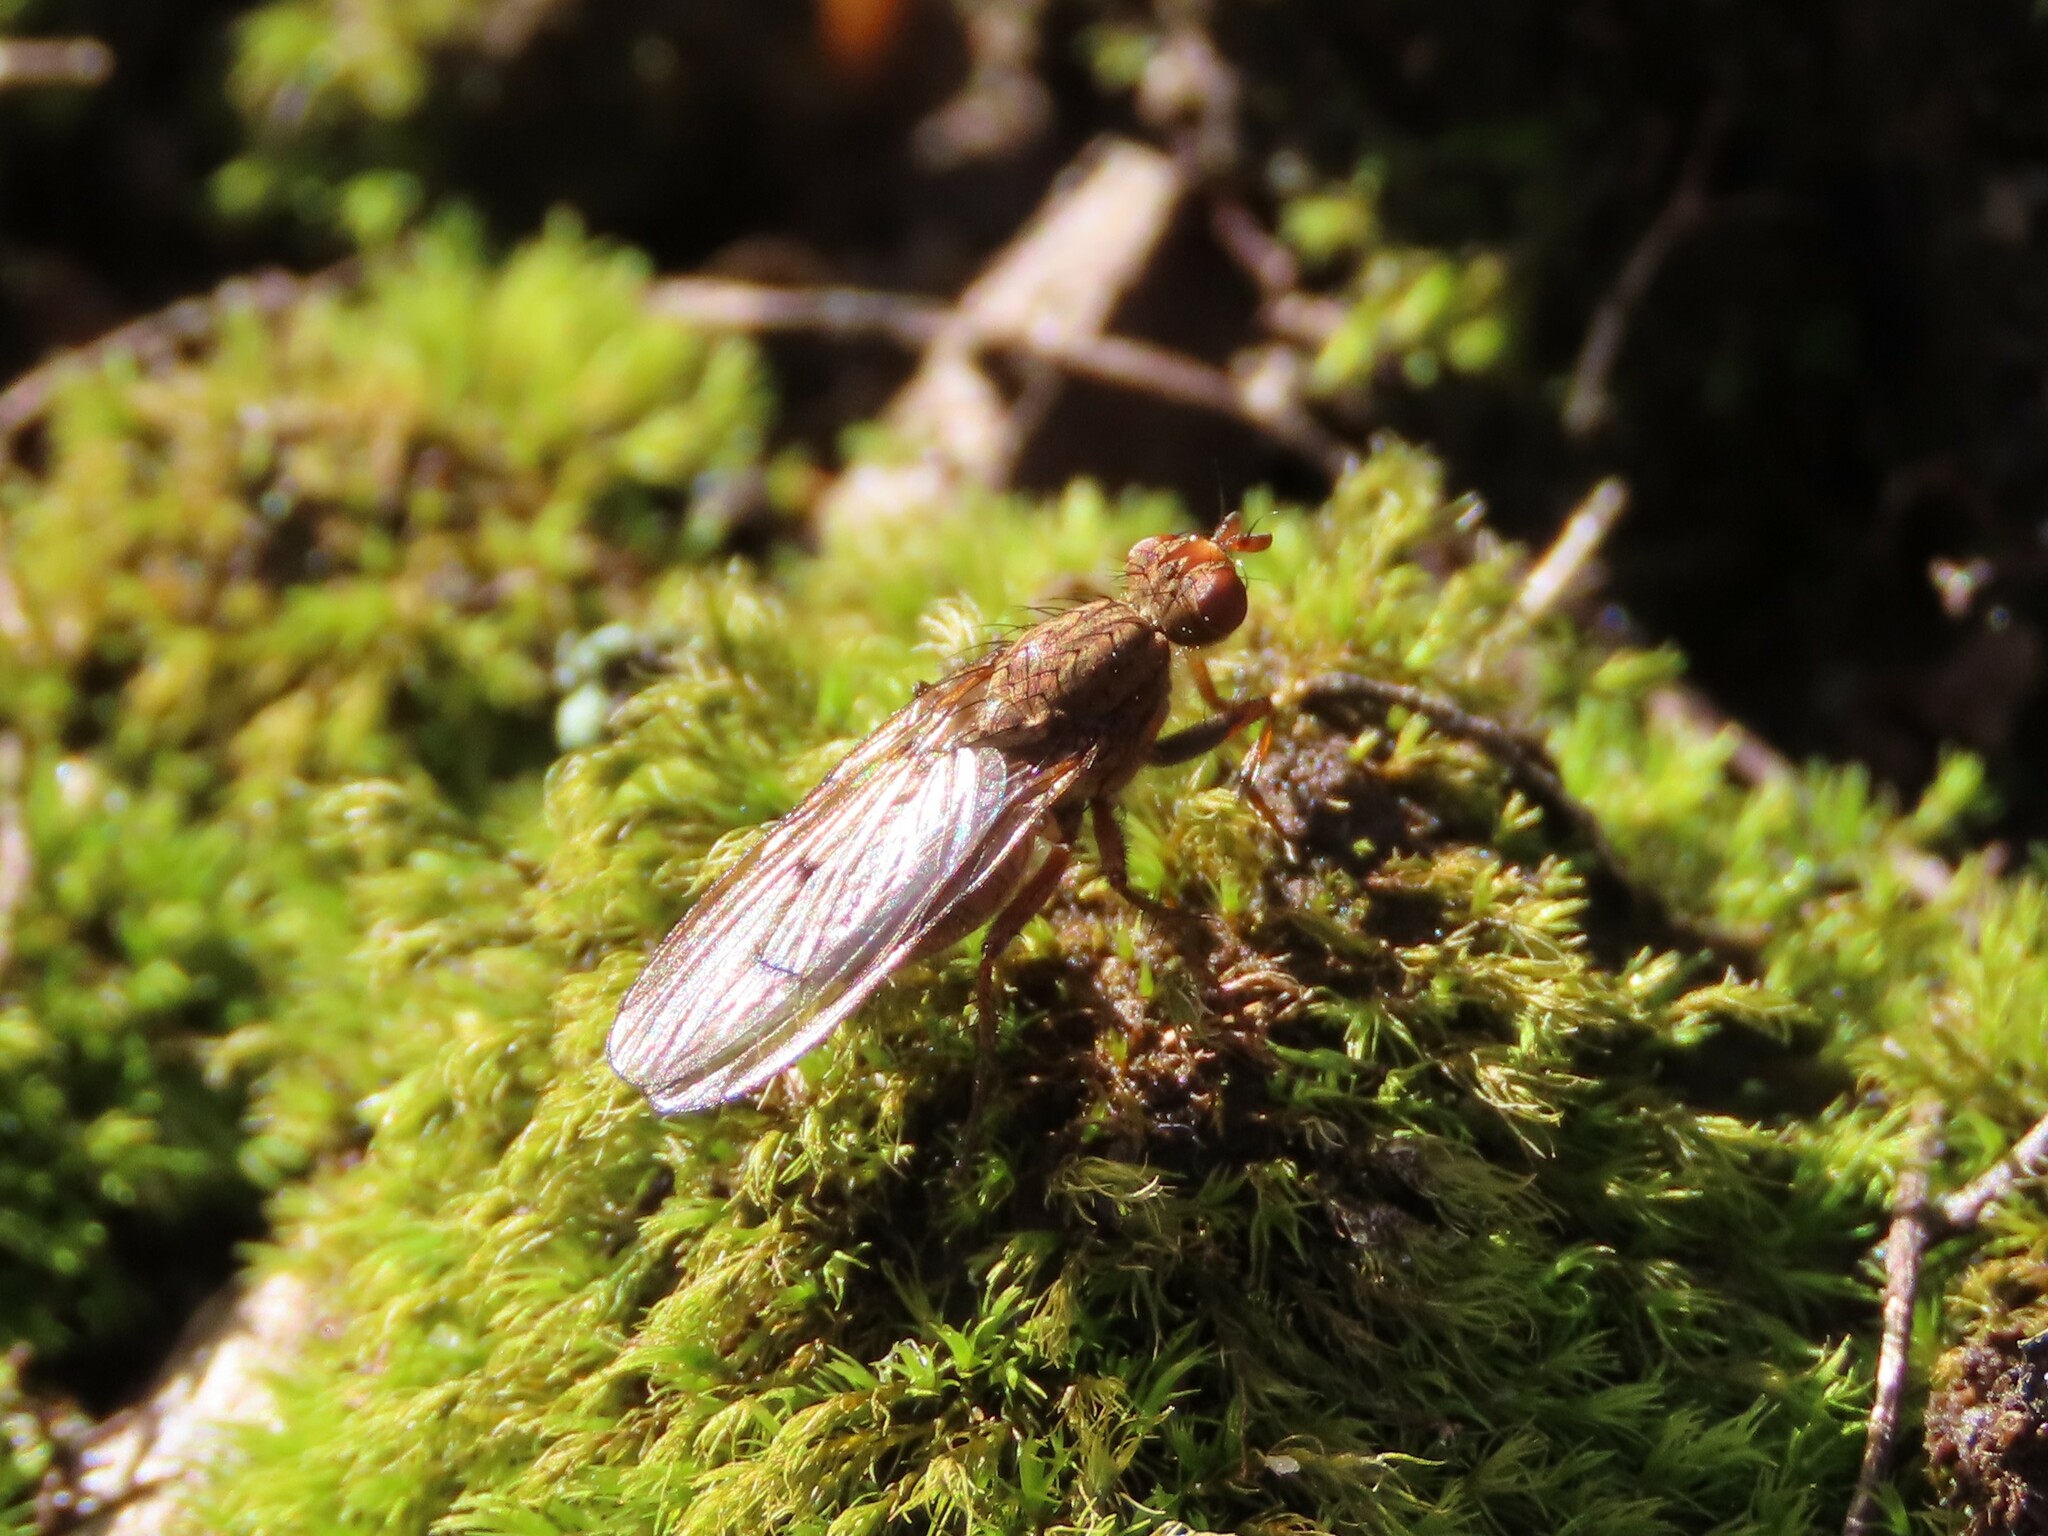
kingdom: Animalia
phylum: Arthropoda
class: Insecta
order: Diptera
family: Scathophagidae
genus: Scathophaga
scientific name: Scathophaga furcata
